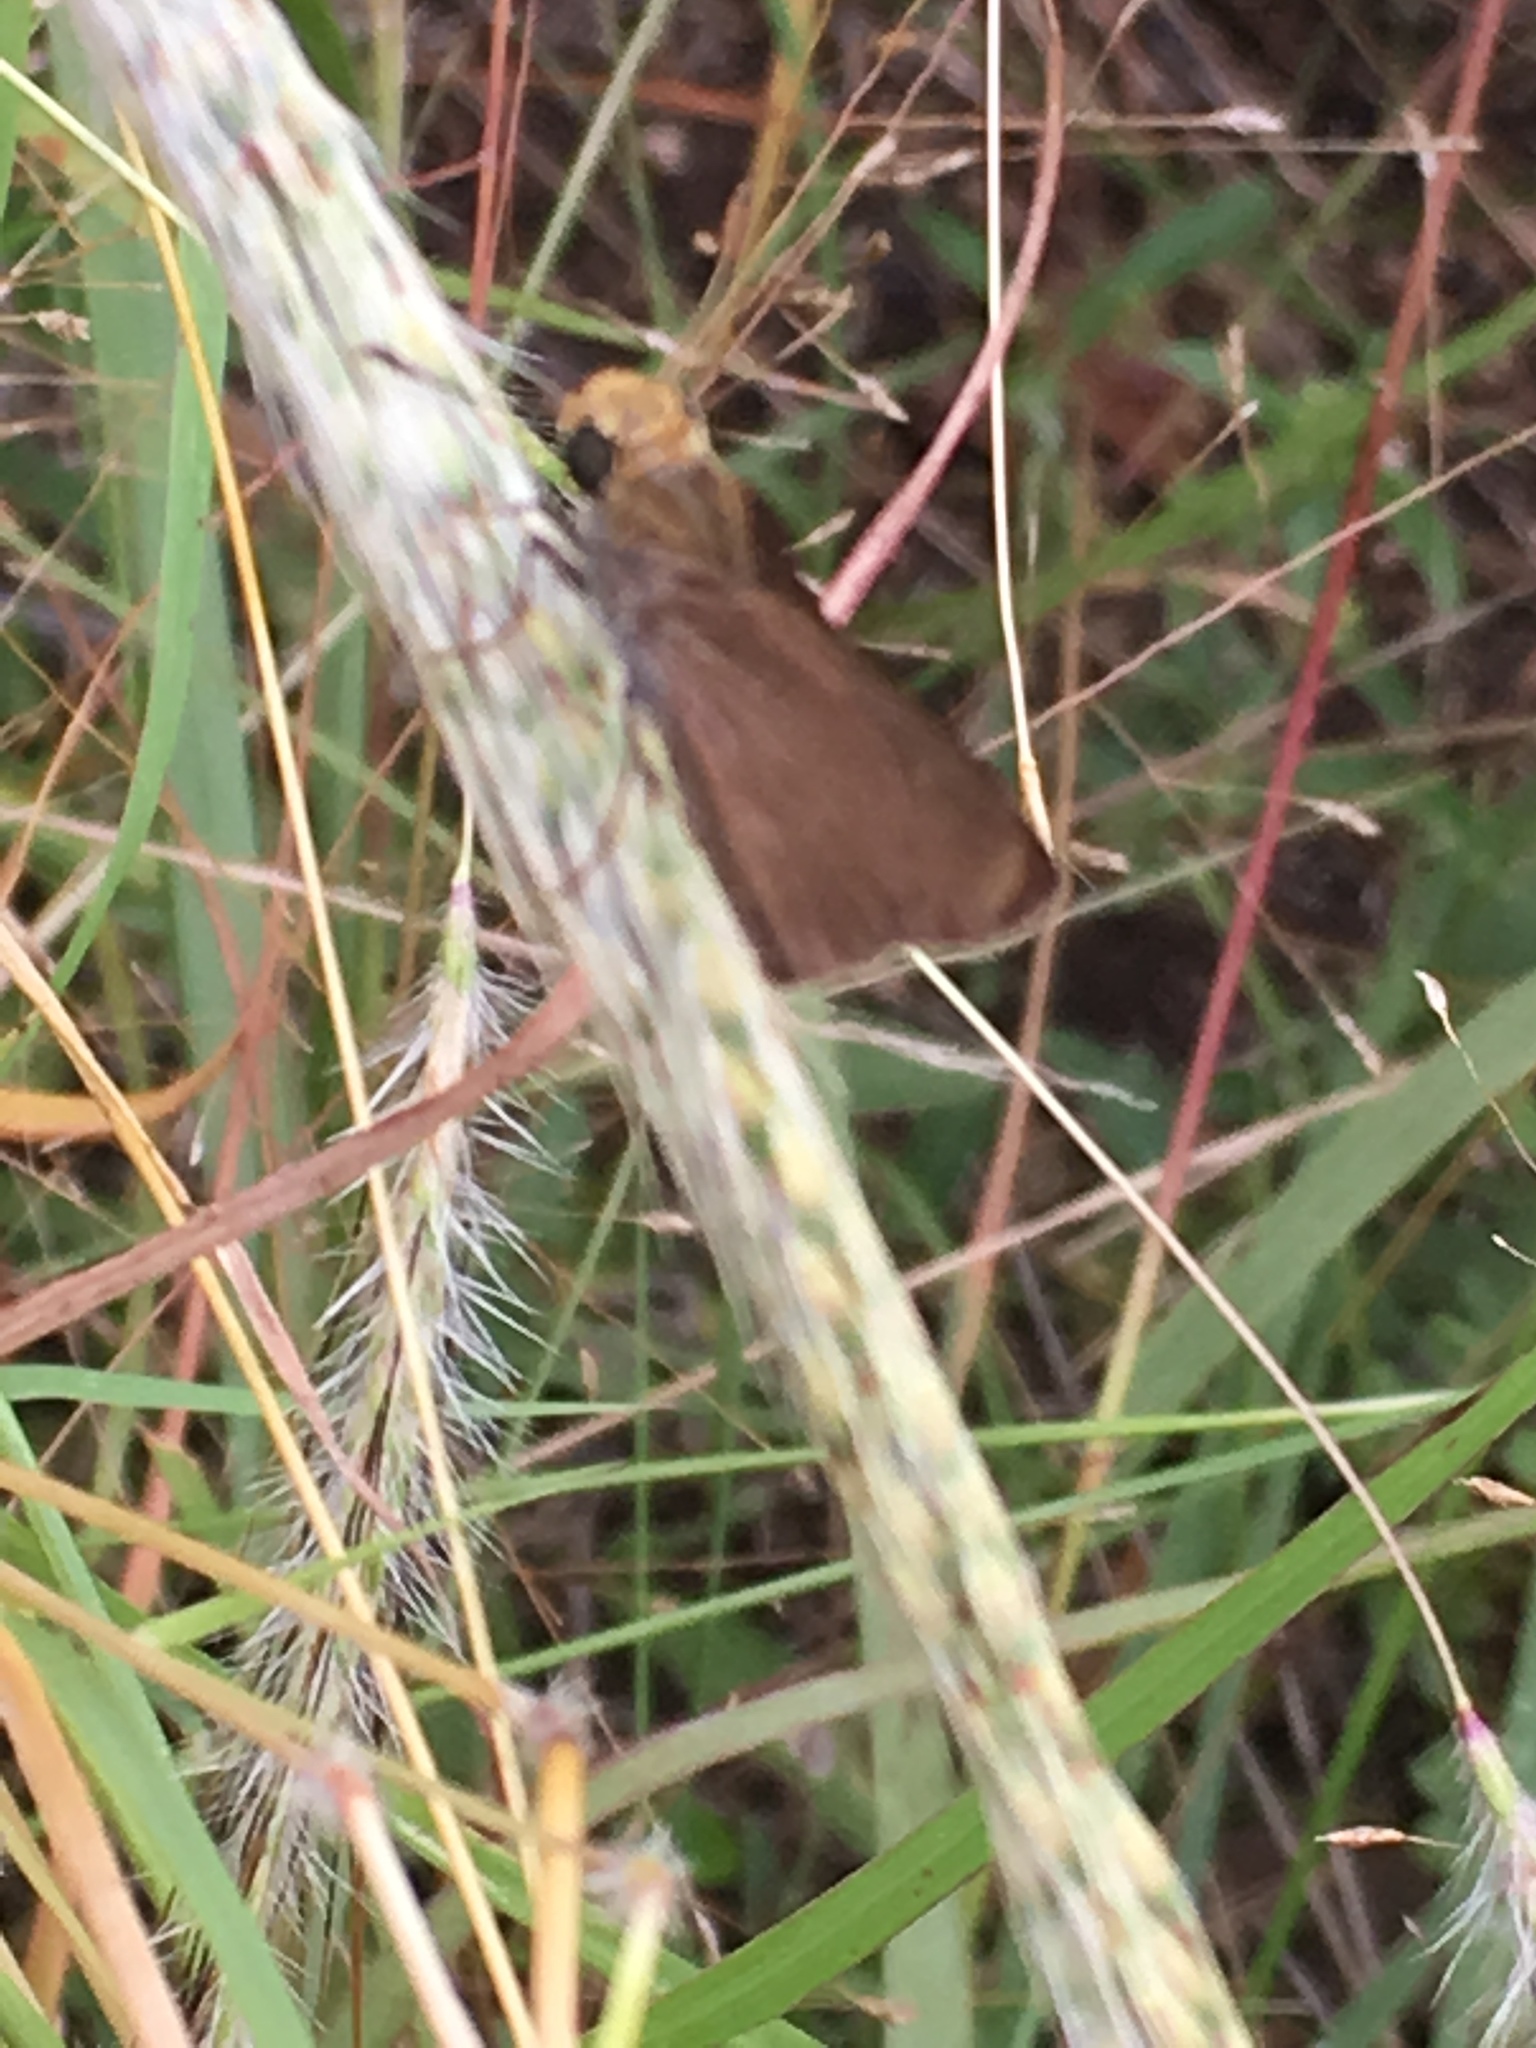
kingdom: Animalia
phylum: Arthropoda
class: Insecta
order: Lepidoptera
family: Hesperiidae
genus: Euphyes
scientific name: Euphyes vestris
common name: Dun skipper
